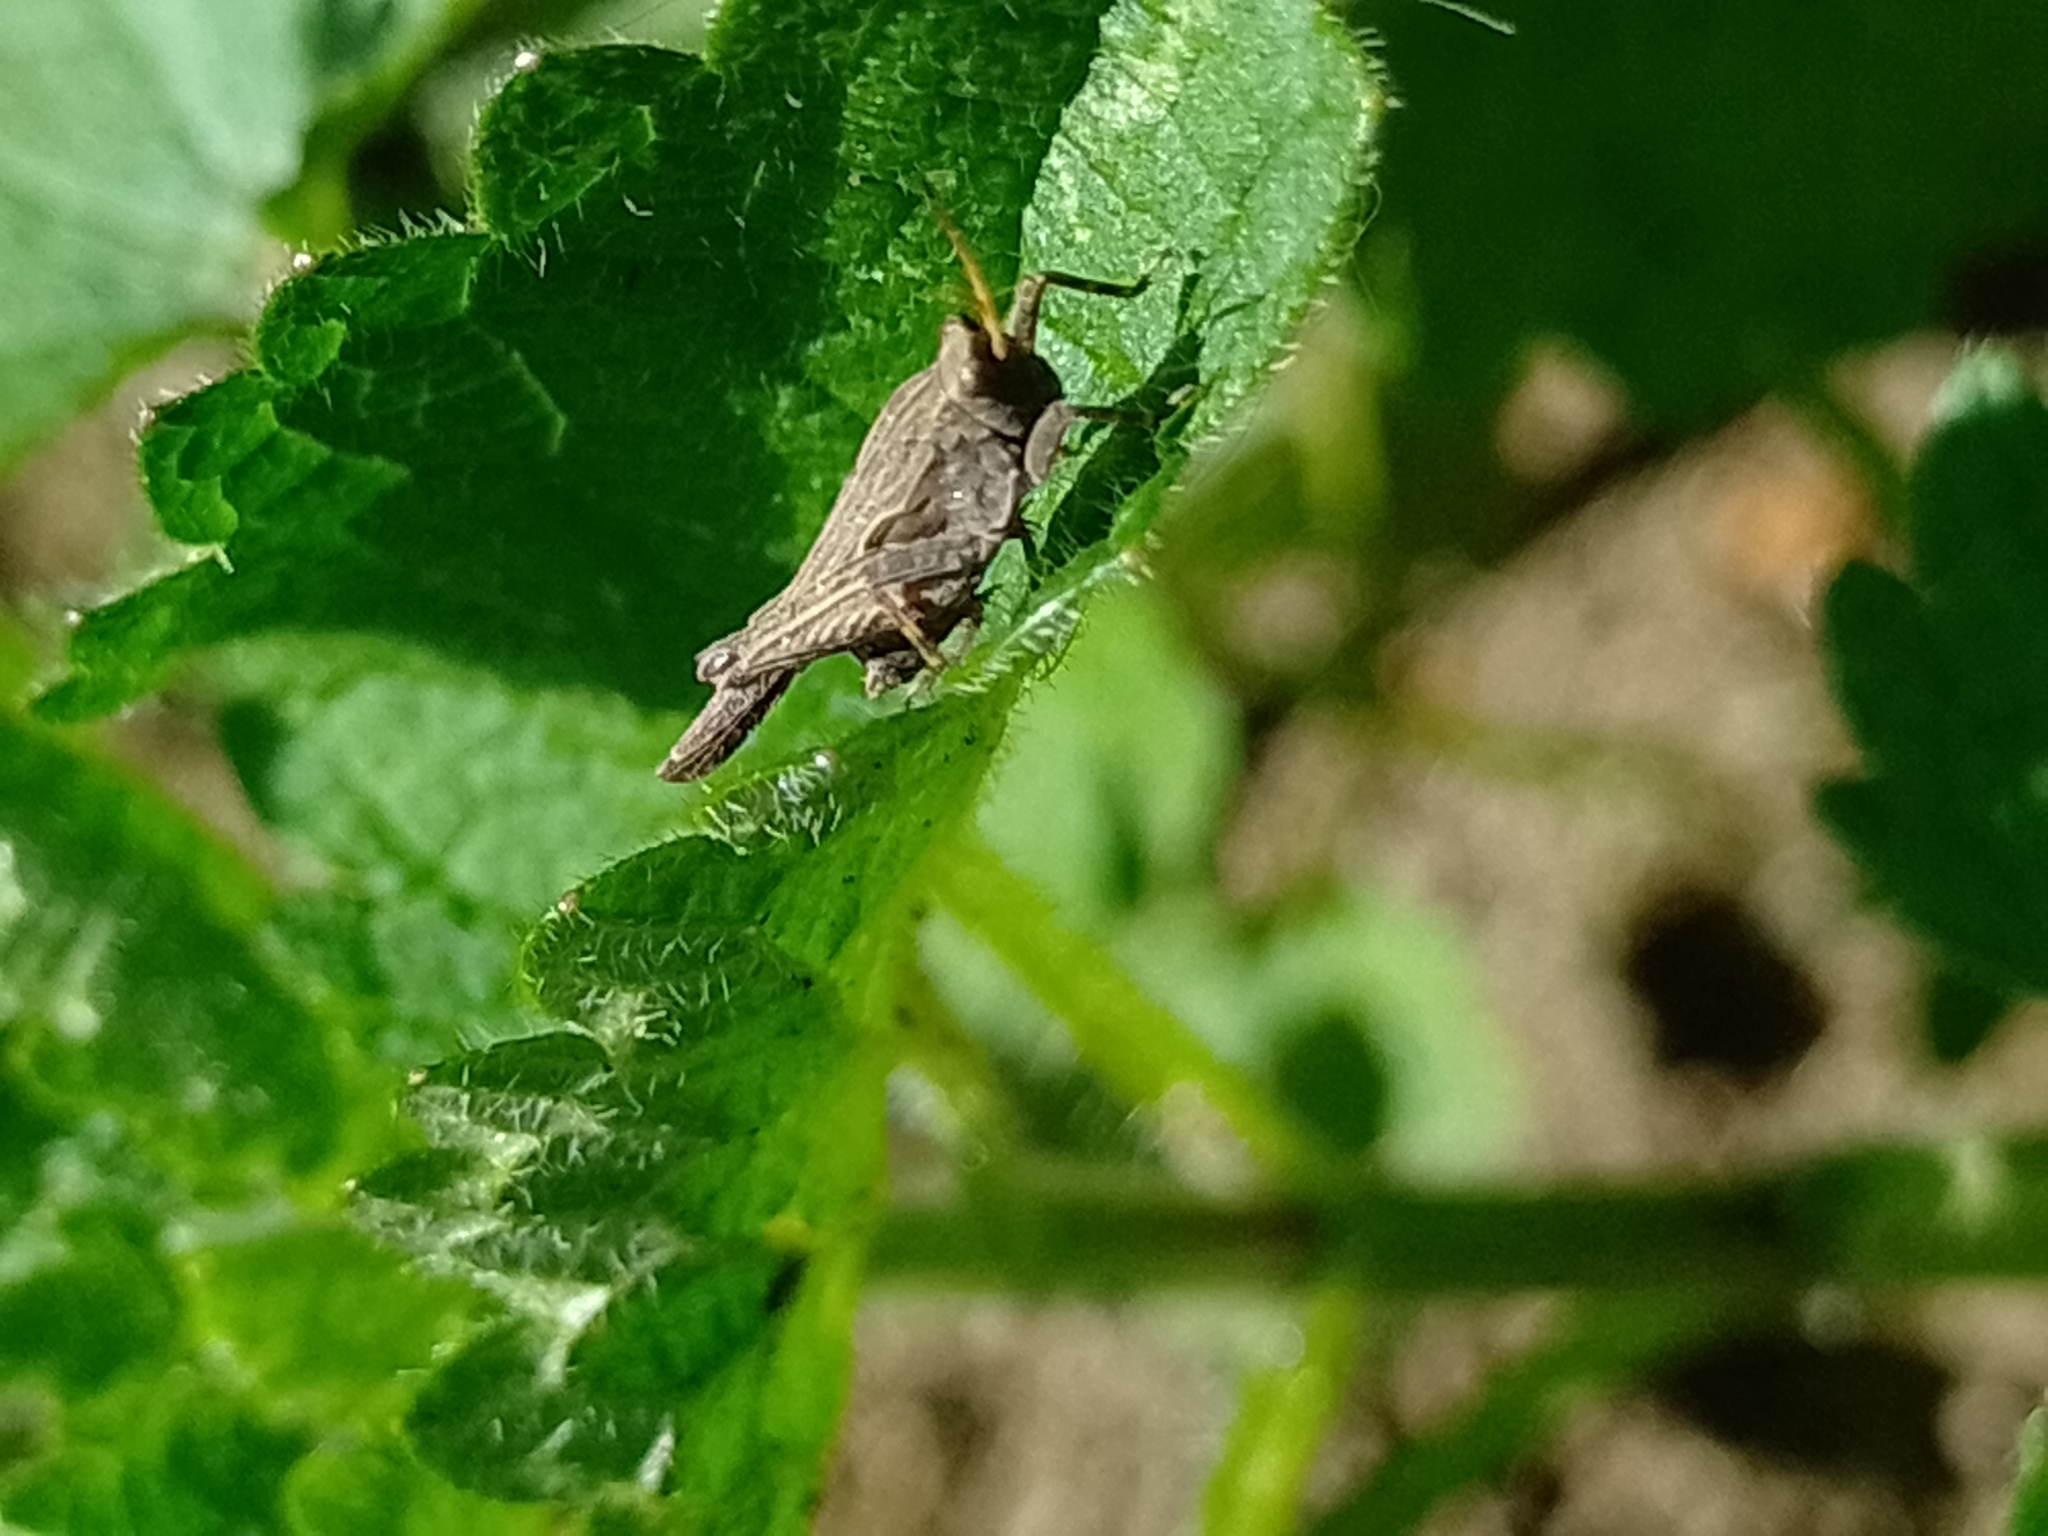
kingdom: Animalia
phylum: Arthropoda
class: Insecta
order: Orthoptera
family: Tetrigidae
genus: Tetrix
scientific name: Tetrix subulata
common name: Slender ground-hopper
